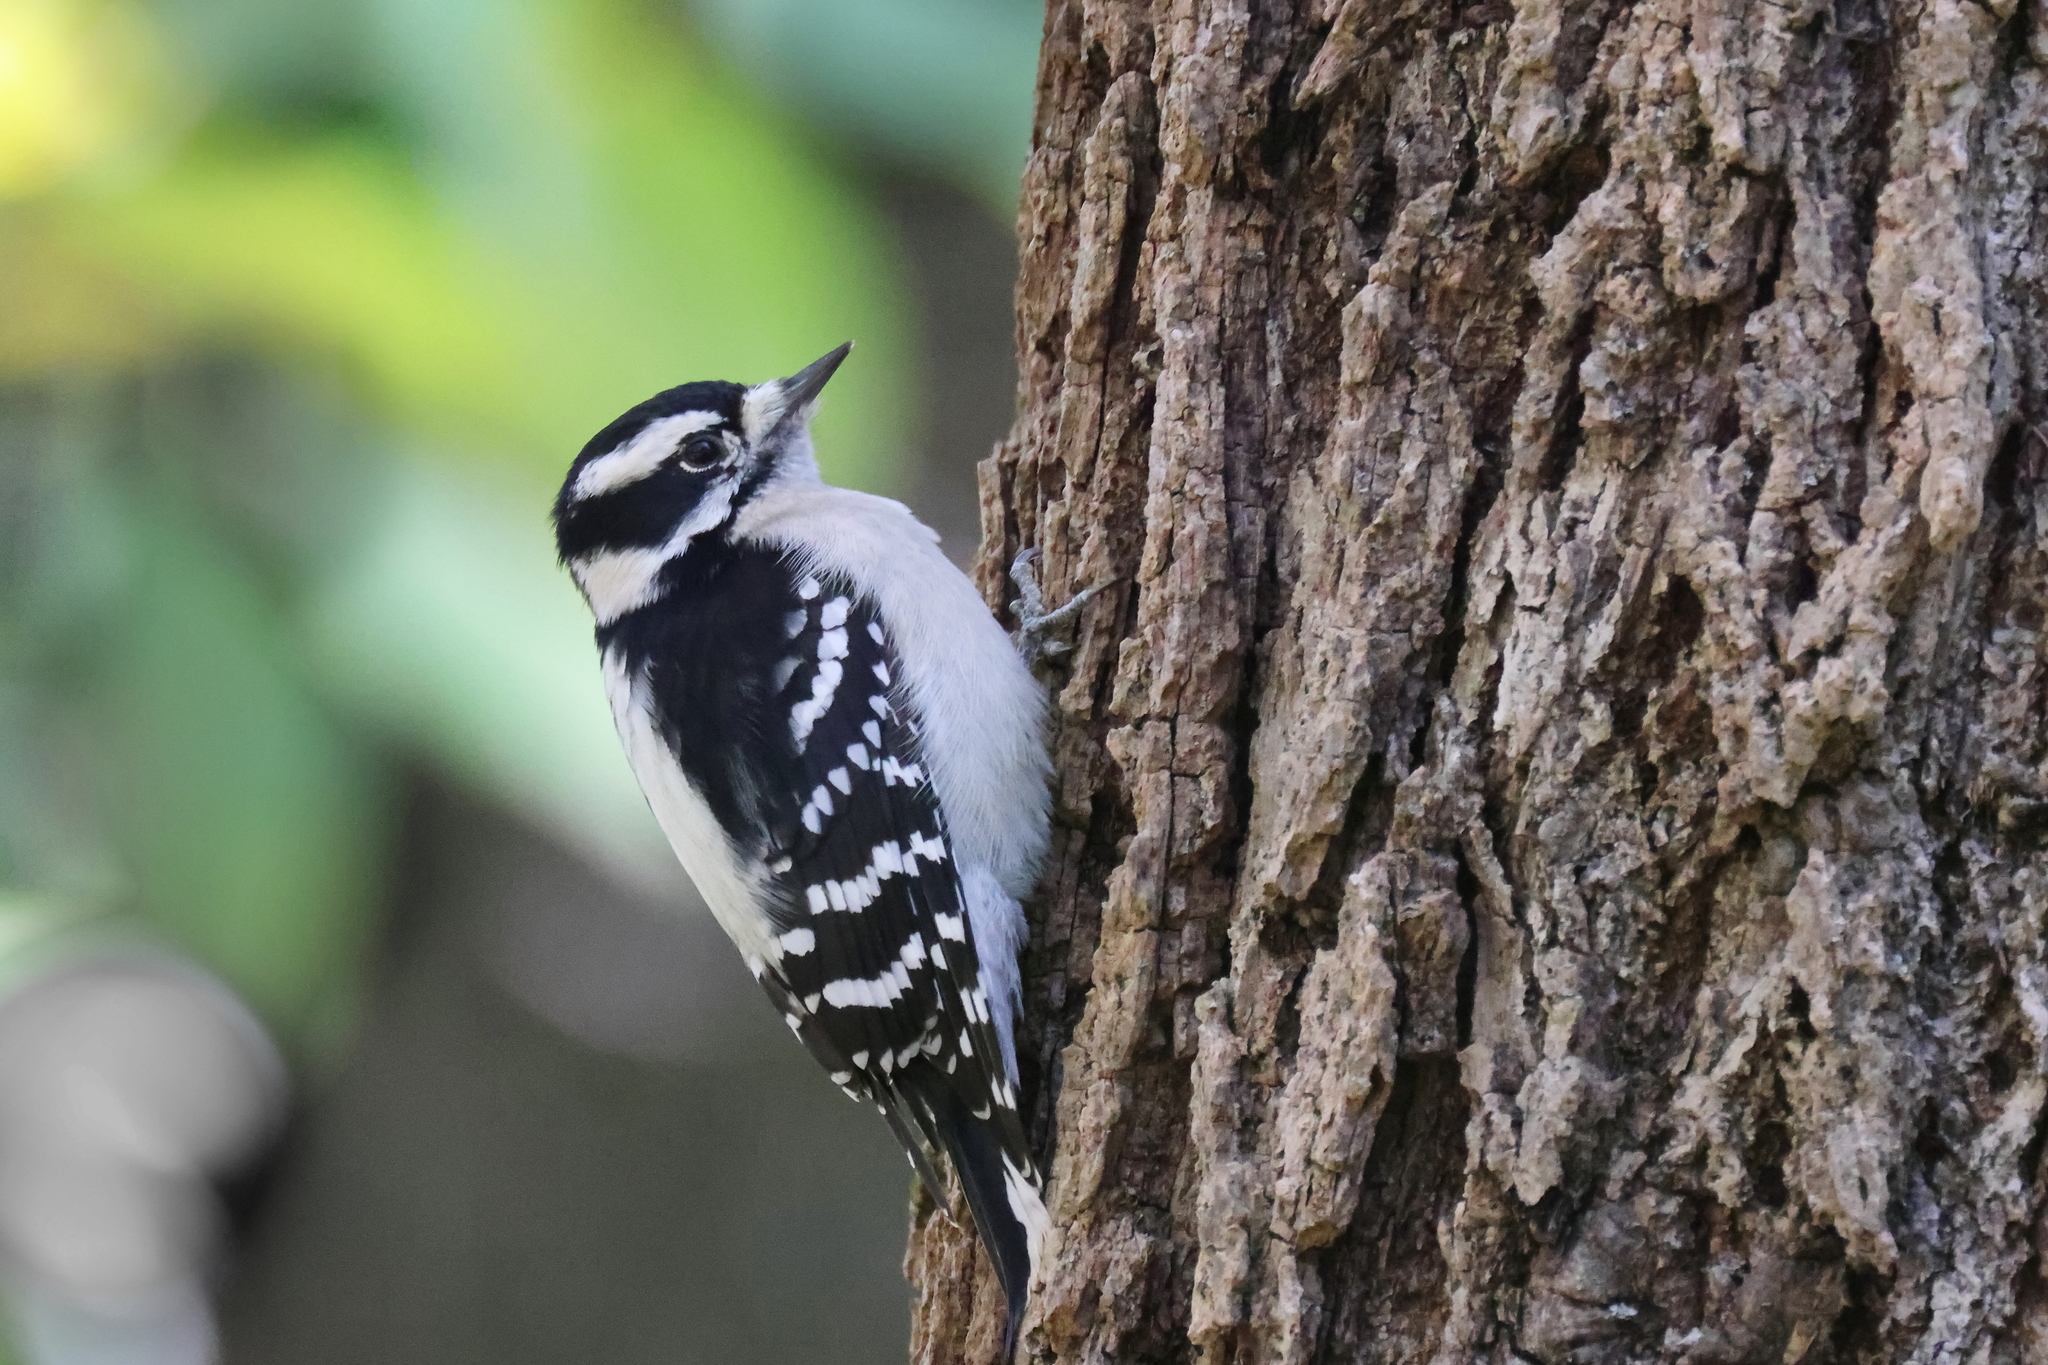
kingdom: Animalia
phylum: Chordata
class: Aves
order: Piciformes
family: Picidae
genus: Dryobates
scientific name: Dryobates pubescens
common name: Downy woodpecker
